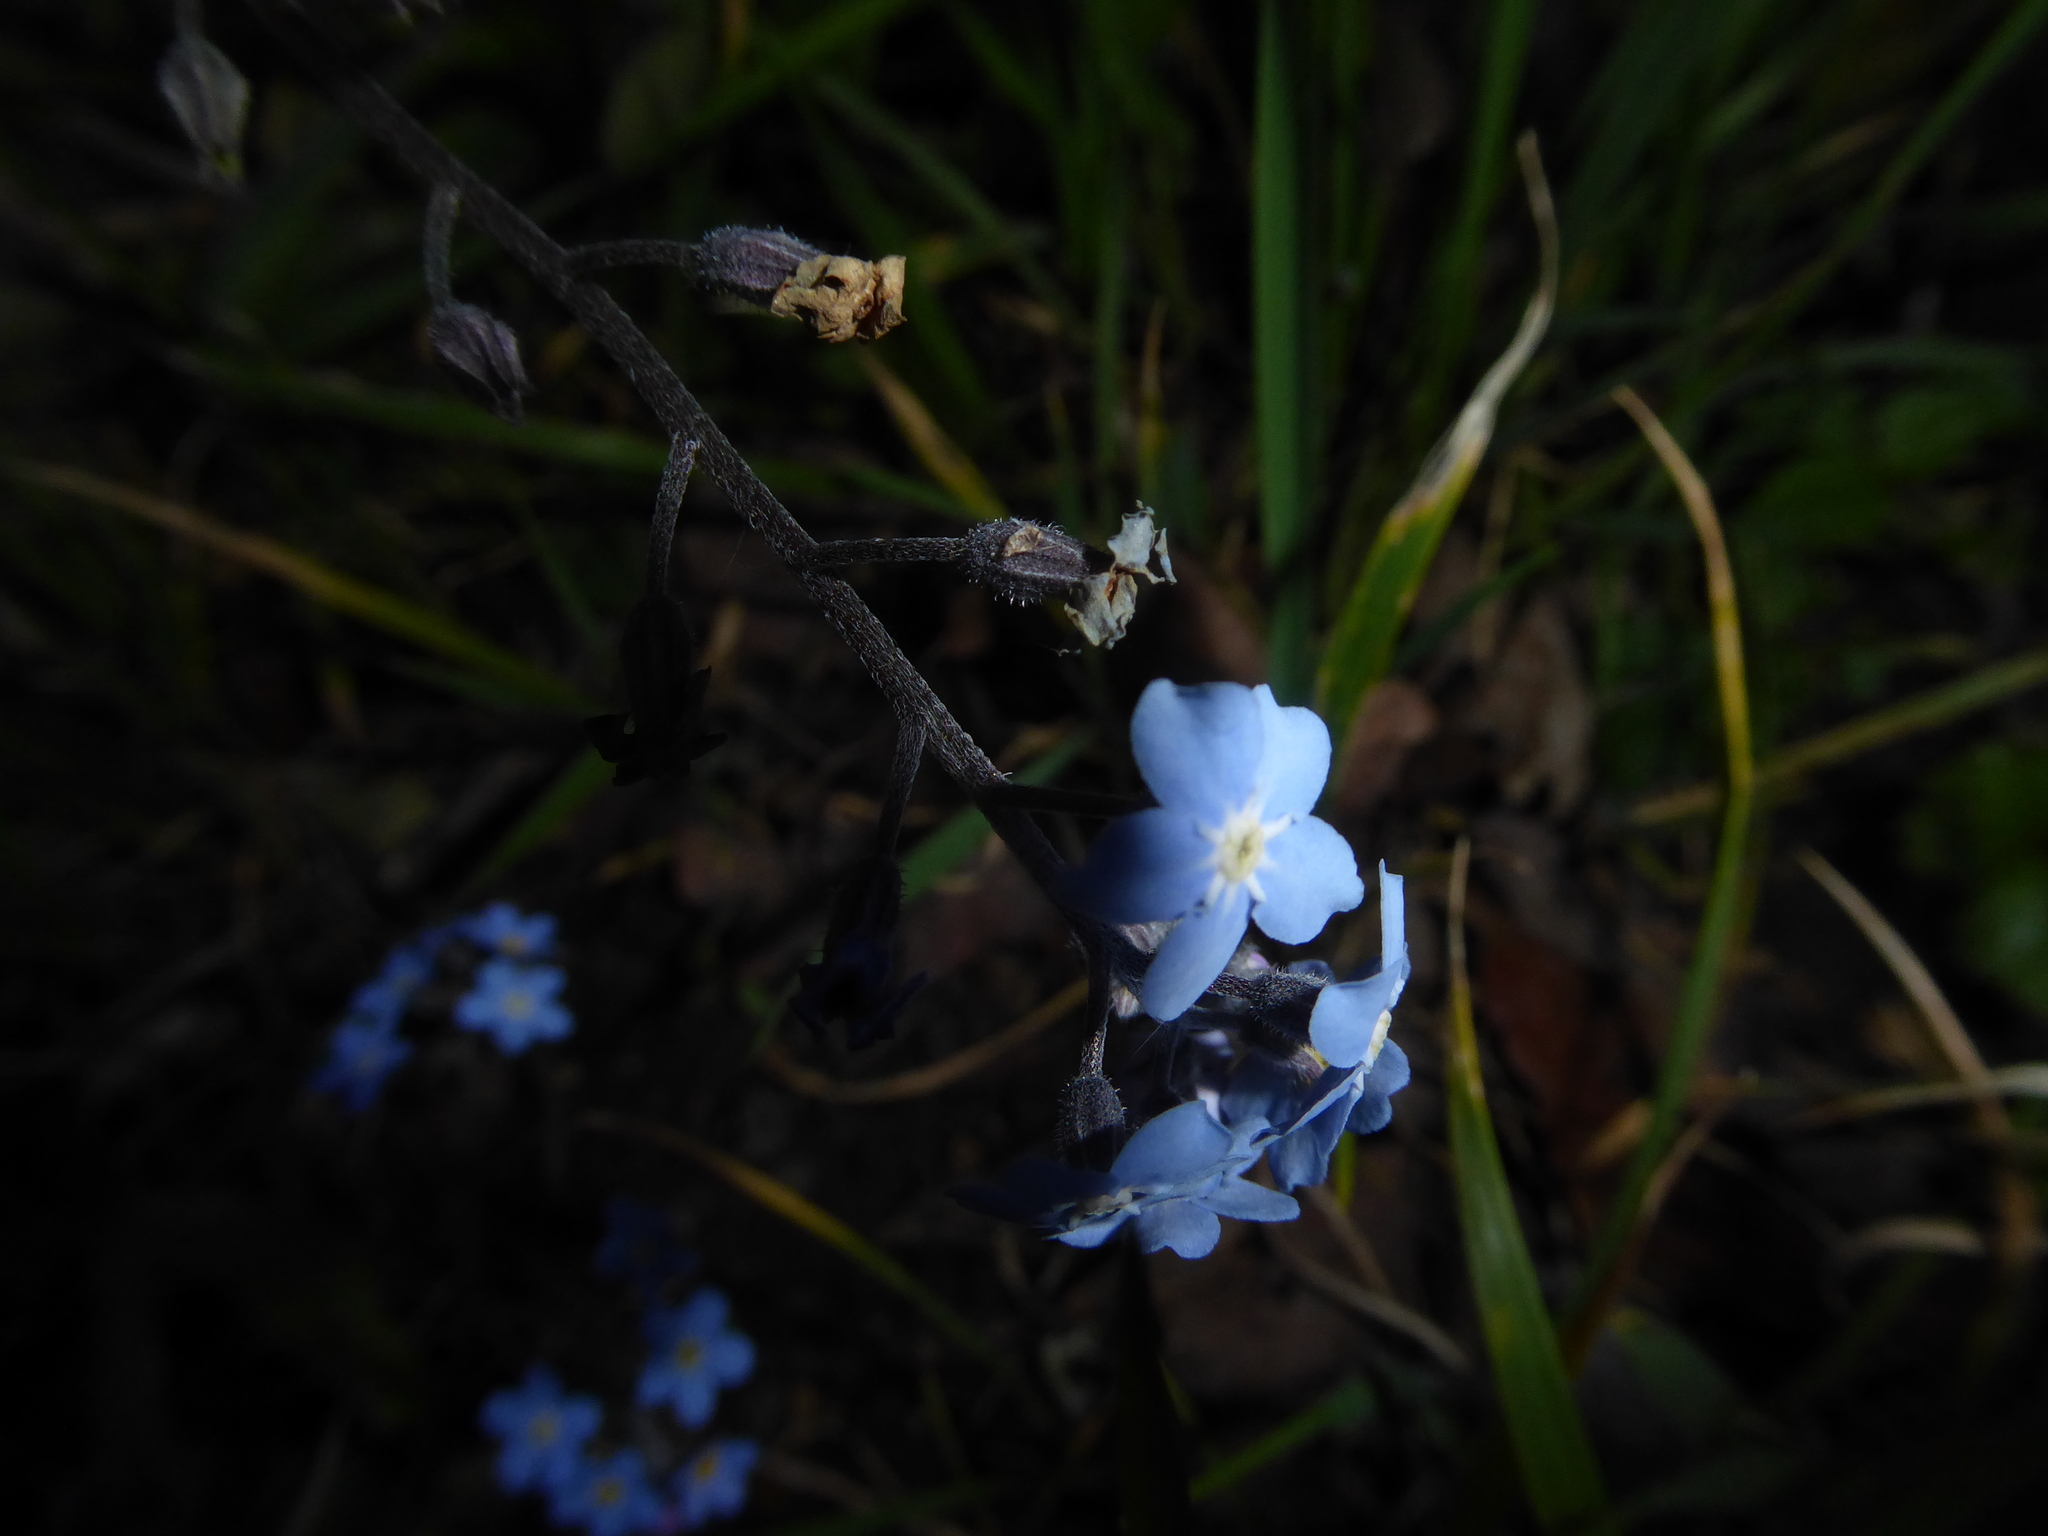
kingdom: Plantae
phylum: Tracheophyta
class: Magnoliopsida
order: Boraginales
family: Boraginaceae
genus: Myosotis
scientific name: Myosotis sylvatica
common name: Wood forget-me-not
